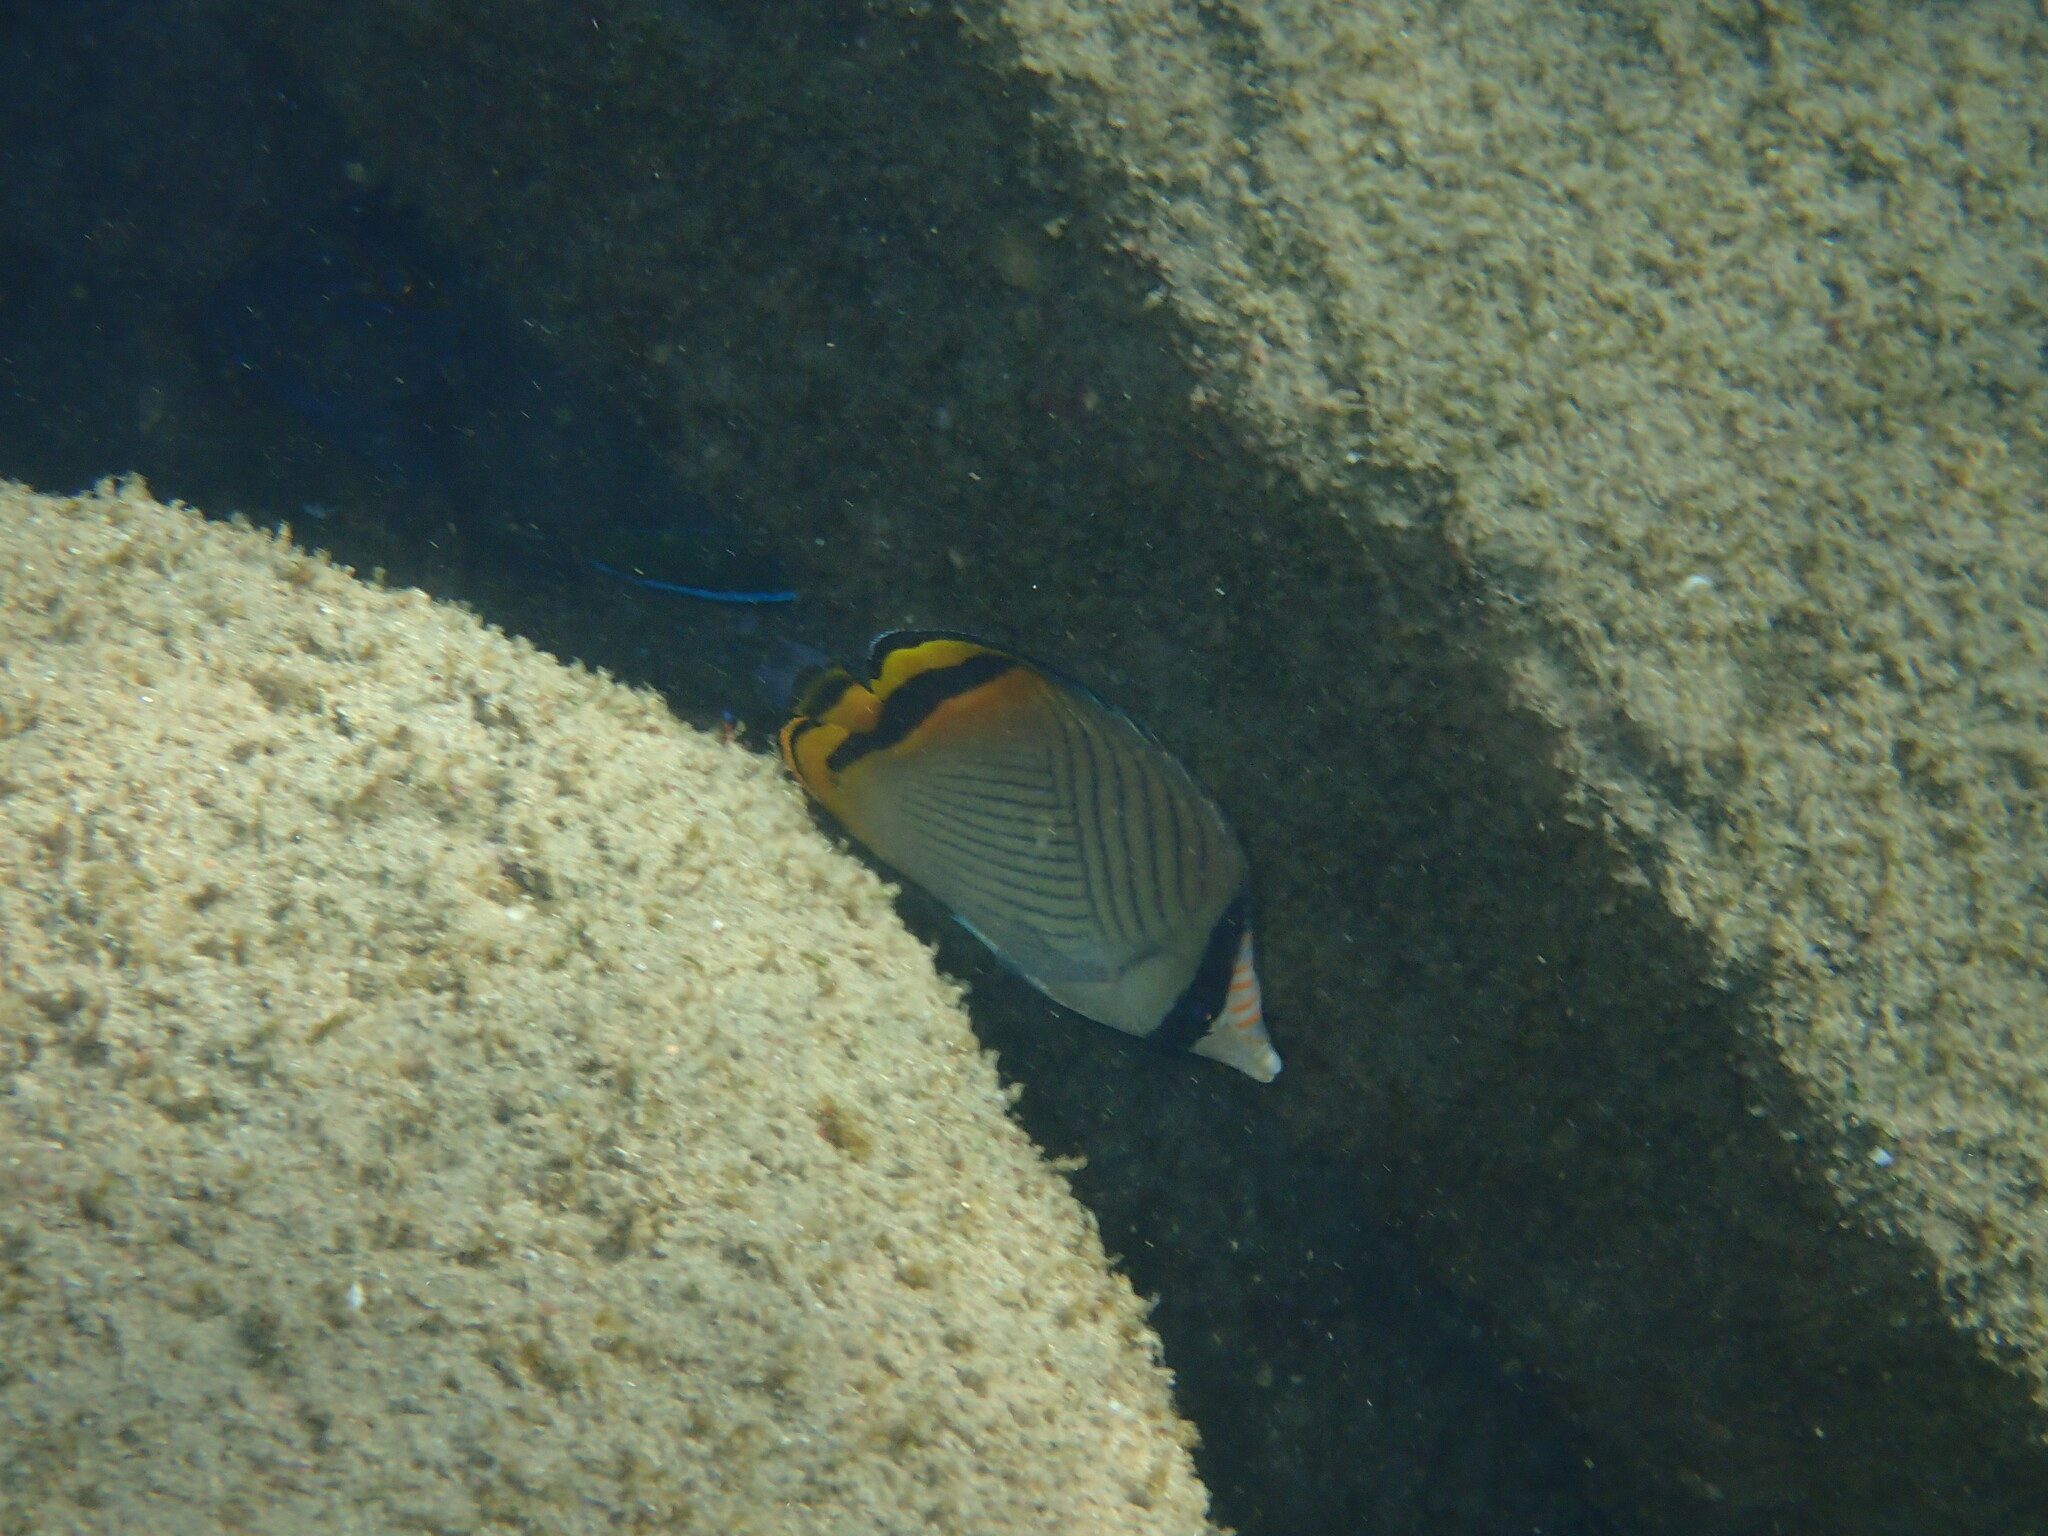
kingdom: Animalia
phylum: Chordata
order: Perciformes
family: Chaetodontidae
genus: Chaetodon
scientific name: Chaetodon vagabundus
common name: Vagabond butterflyfish
